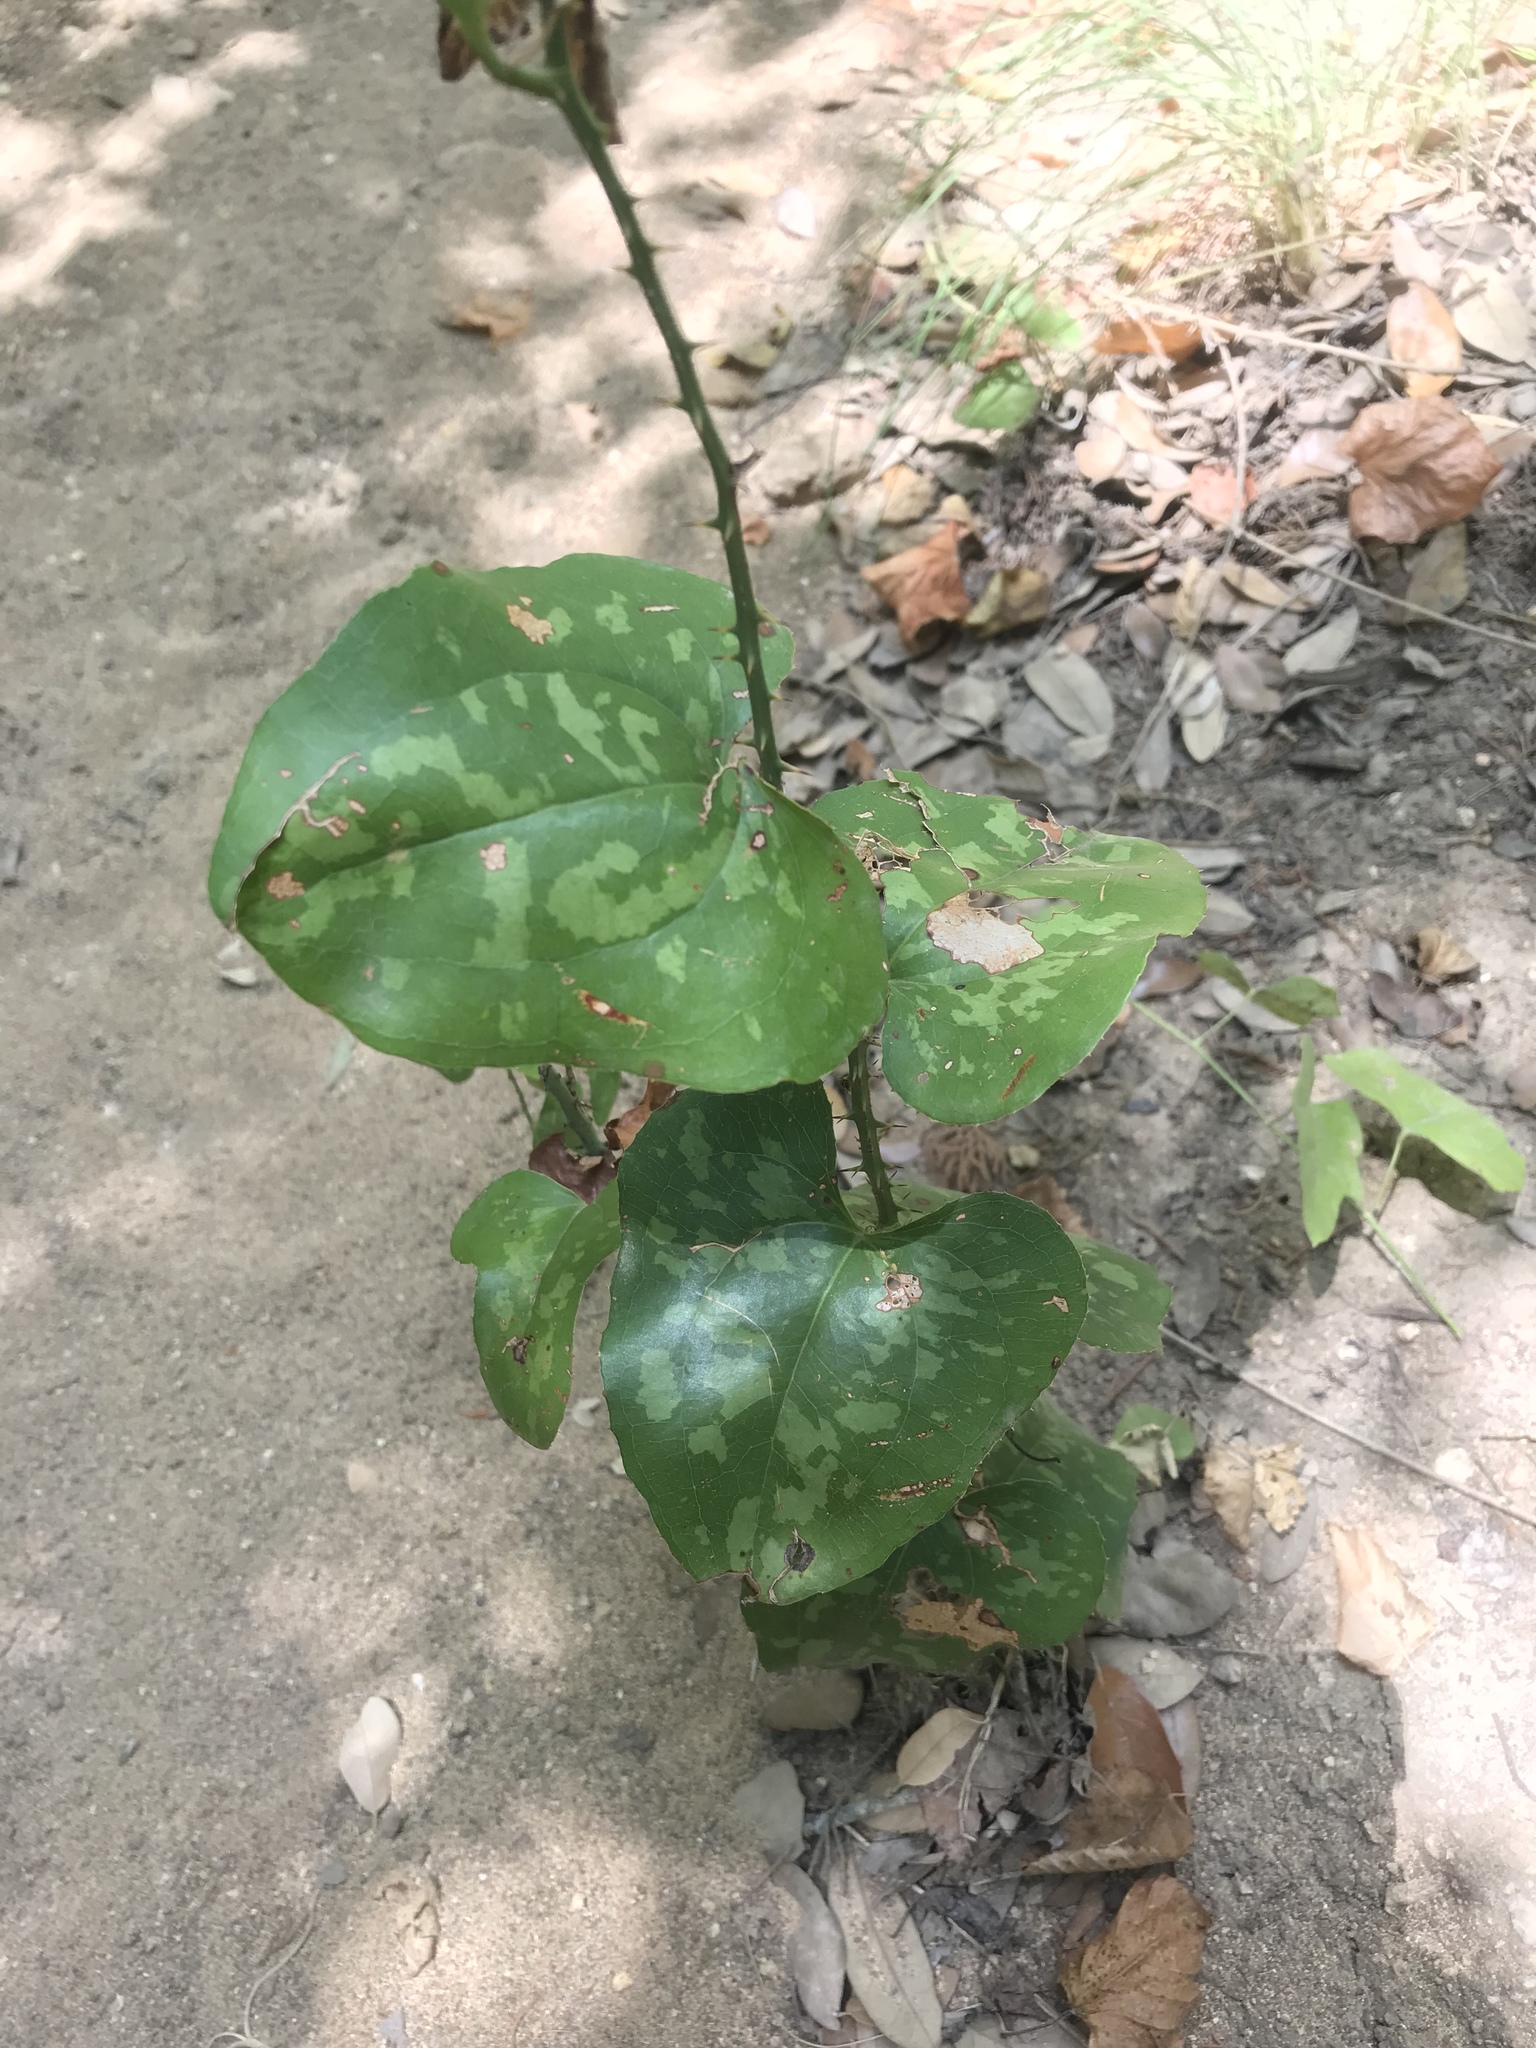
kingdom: Plantae
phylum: Tracheophyta
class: Liliopsida
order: Liliales
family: Smilacaceae
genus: Smilax
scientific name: Smilax bona-nox
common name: Catbrier
